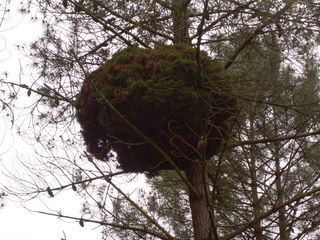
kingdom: Bacteria
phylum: Firmicutes
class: Bacilli
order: Acholeplasmatales
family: Acholeplasmataceae
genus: Phytoplasma
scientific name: Phytoplasma pini
